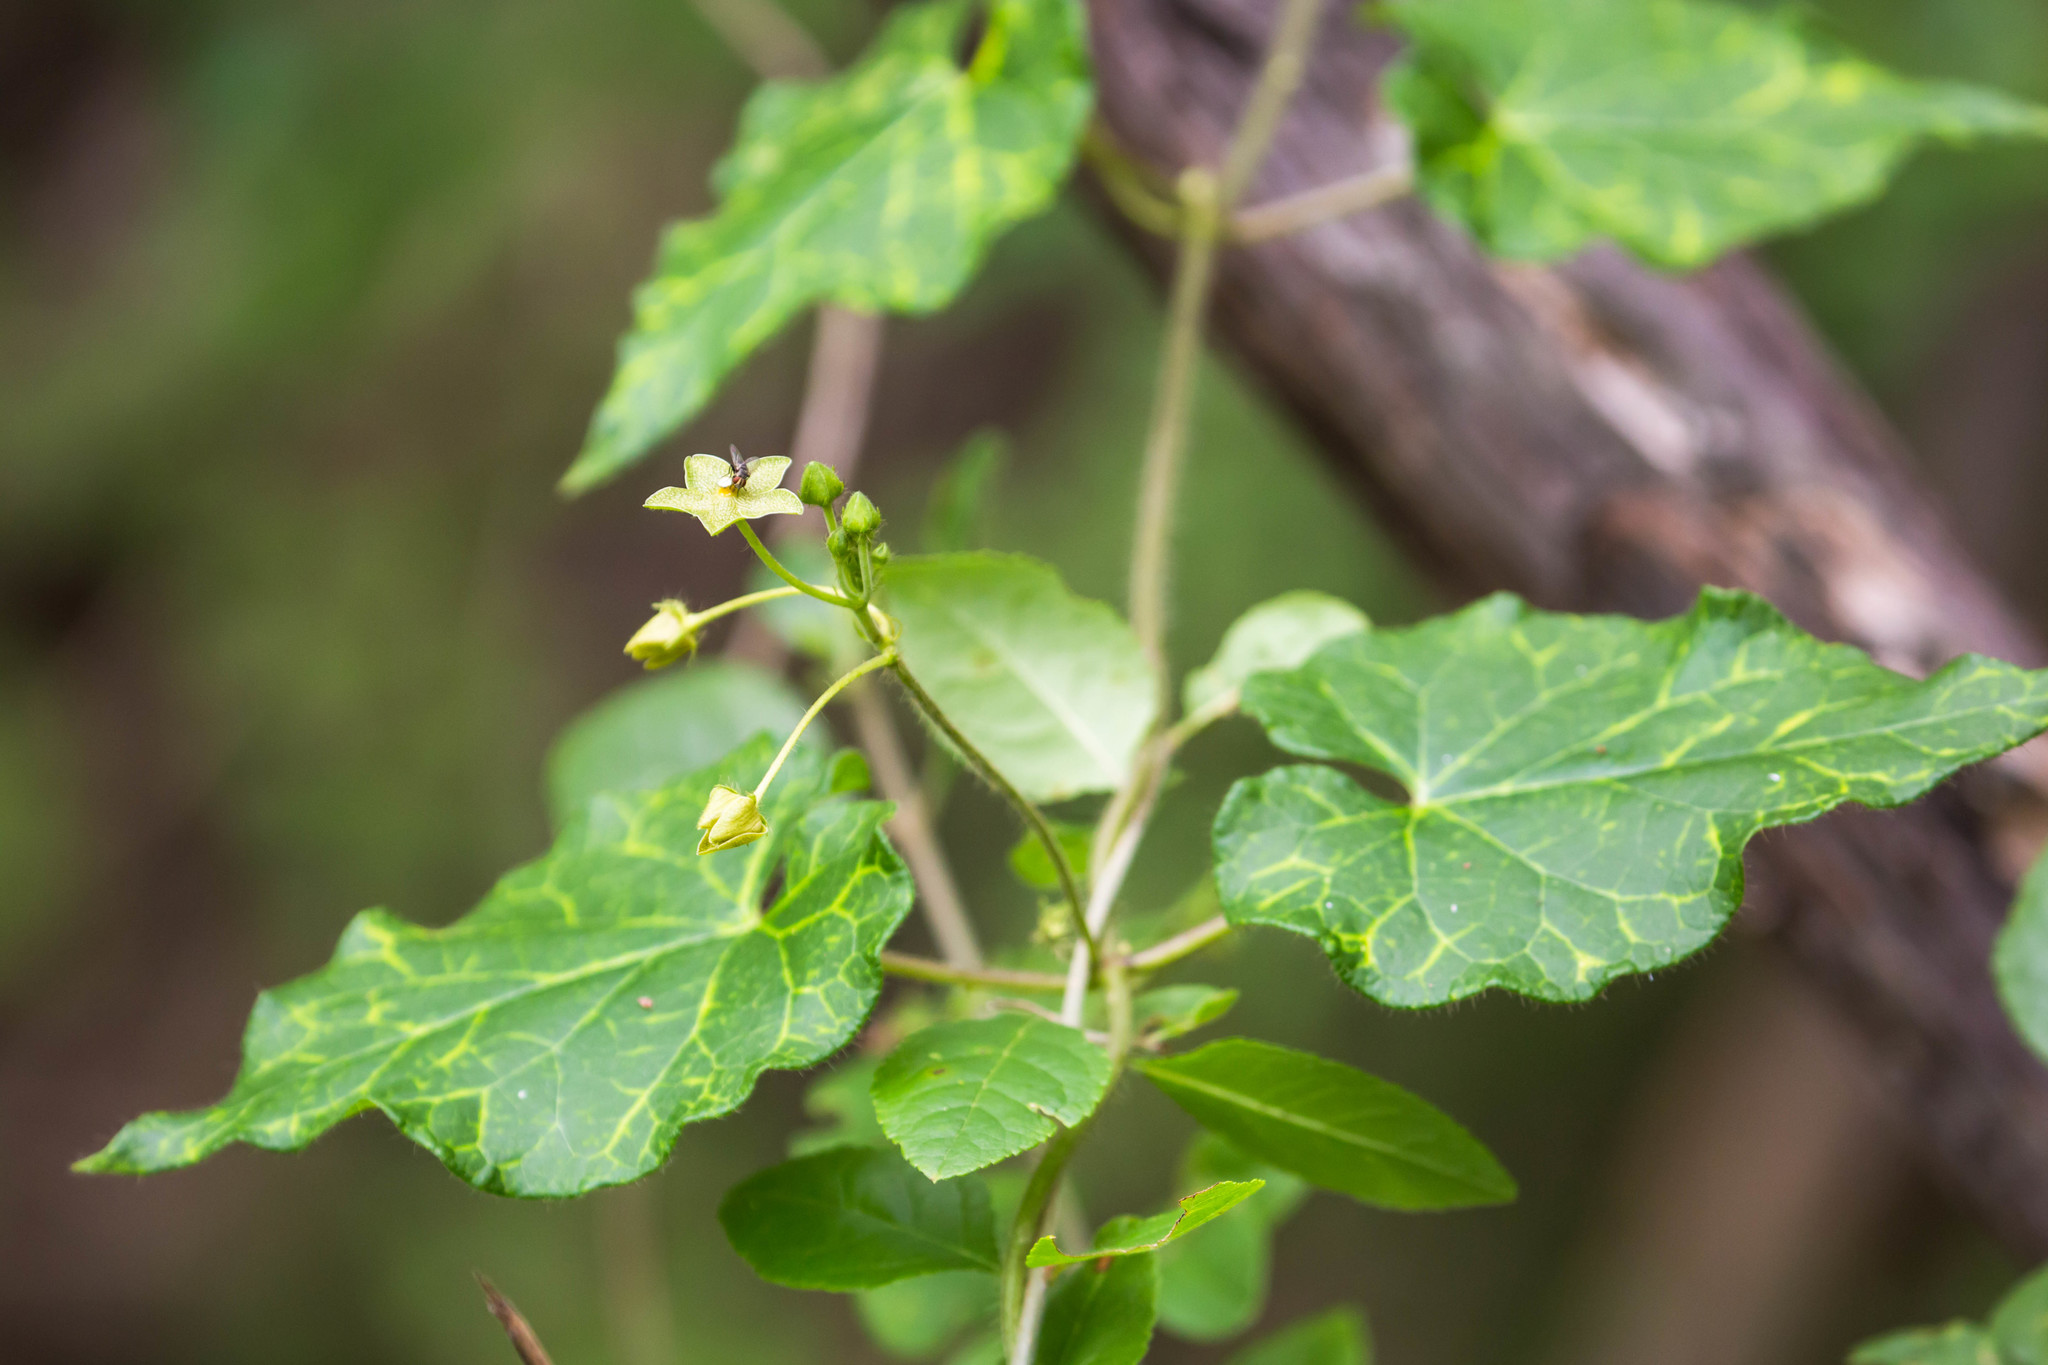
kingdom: Plantae
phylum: Tracheophyta
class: Magnoliopsida
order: Gentianales
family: Apocynaceae
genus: Dictyanthus
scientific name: Dictyanthus reticulatus
